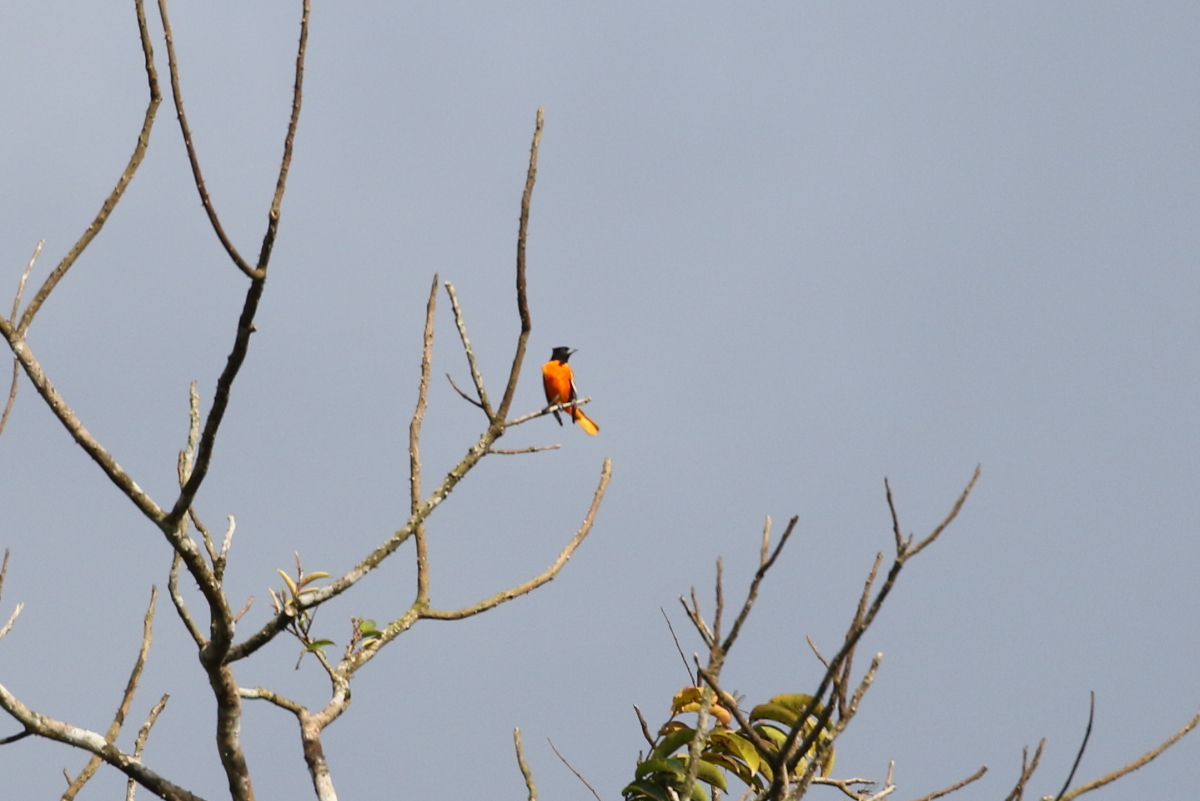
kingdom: Animalia
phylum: Chordata
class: Aves
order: Passeriformes
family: Icteridae
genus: Icterus
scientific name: Icterus galbula
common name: Baltimore oriole
